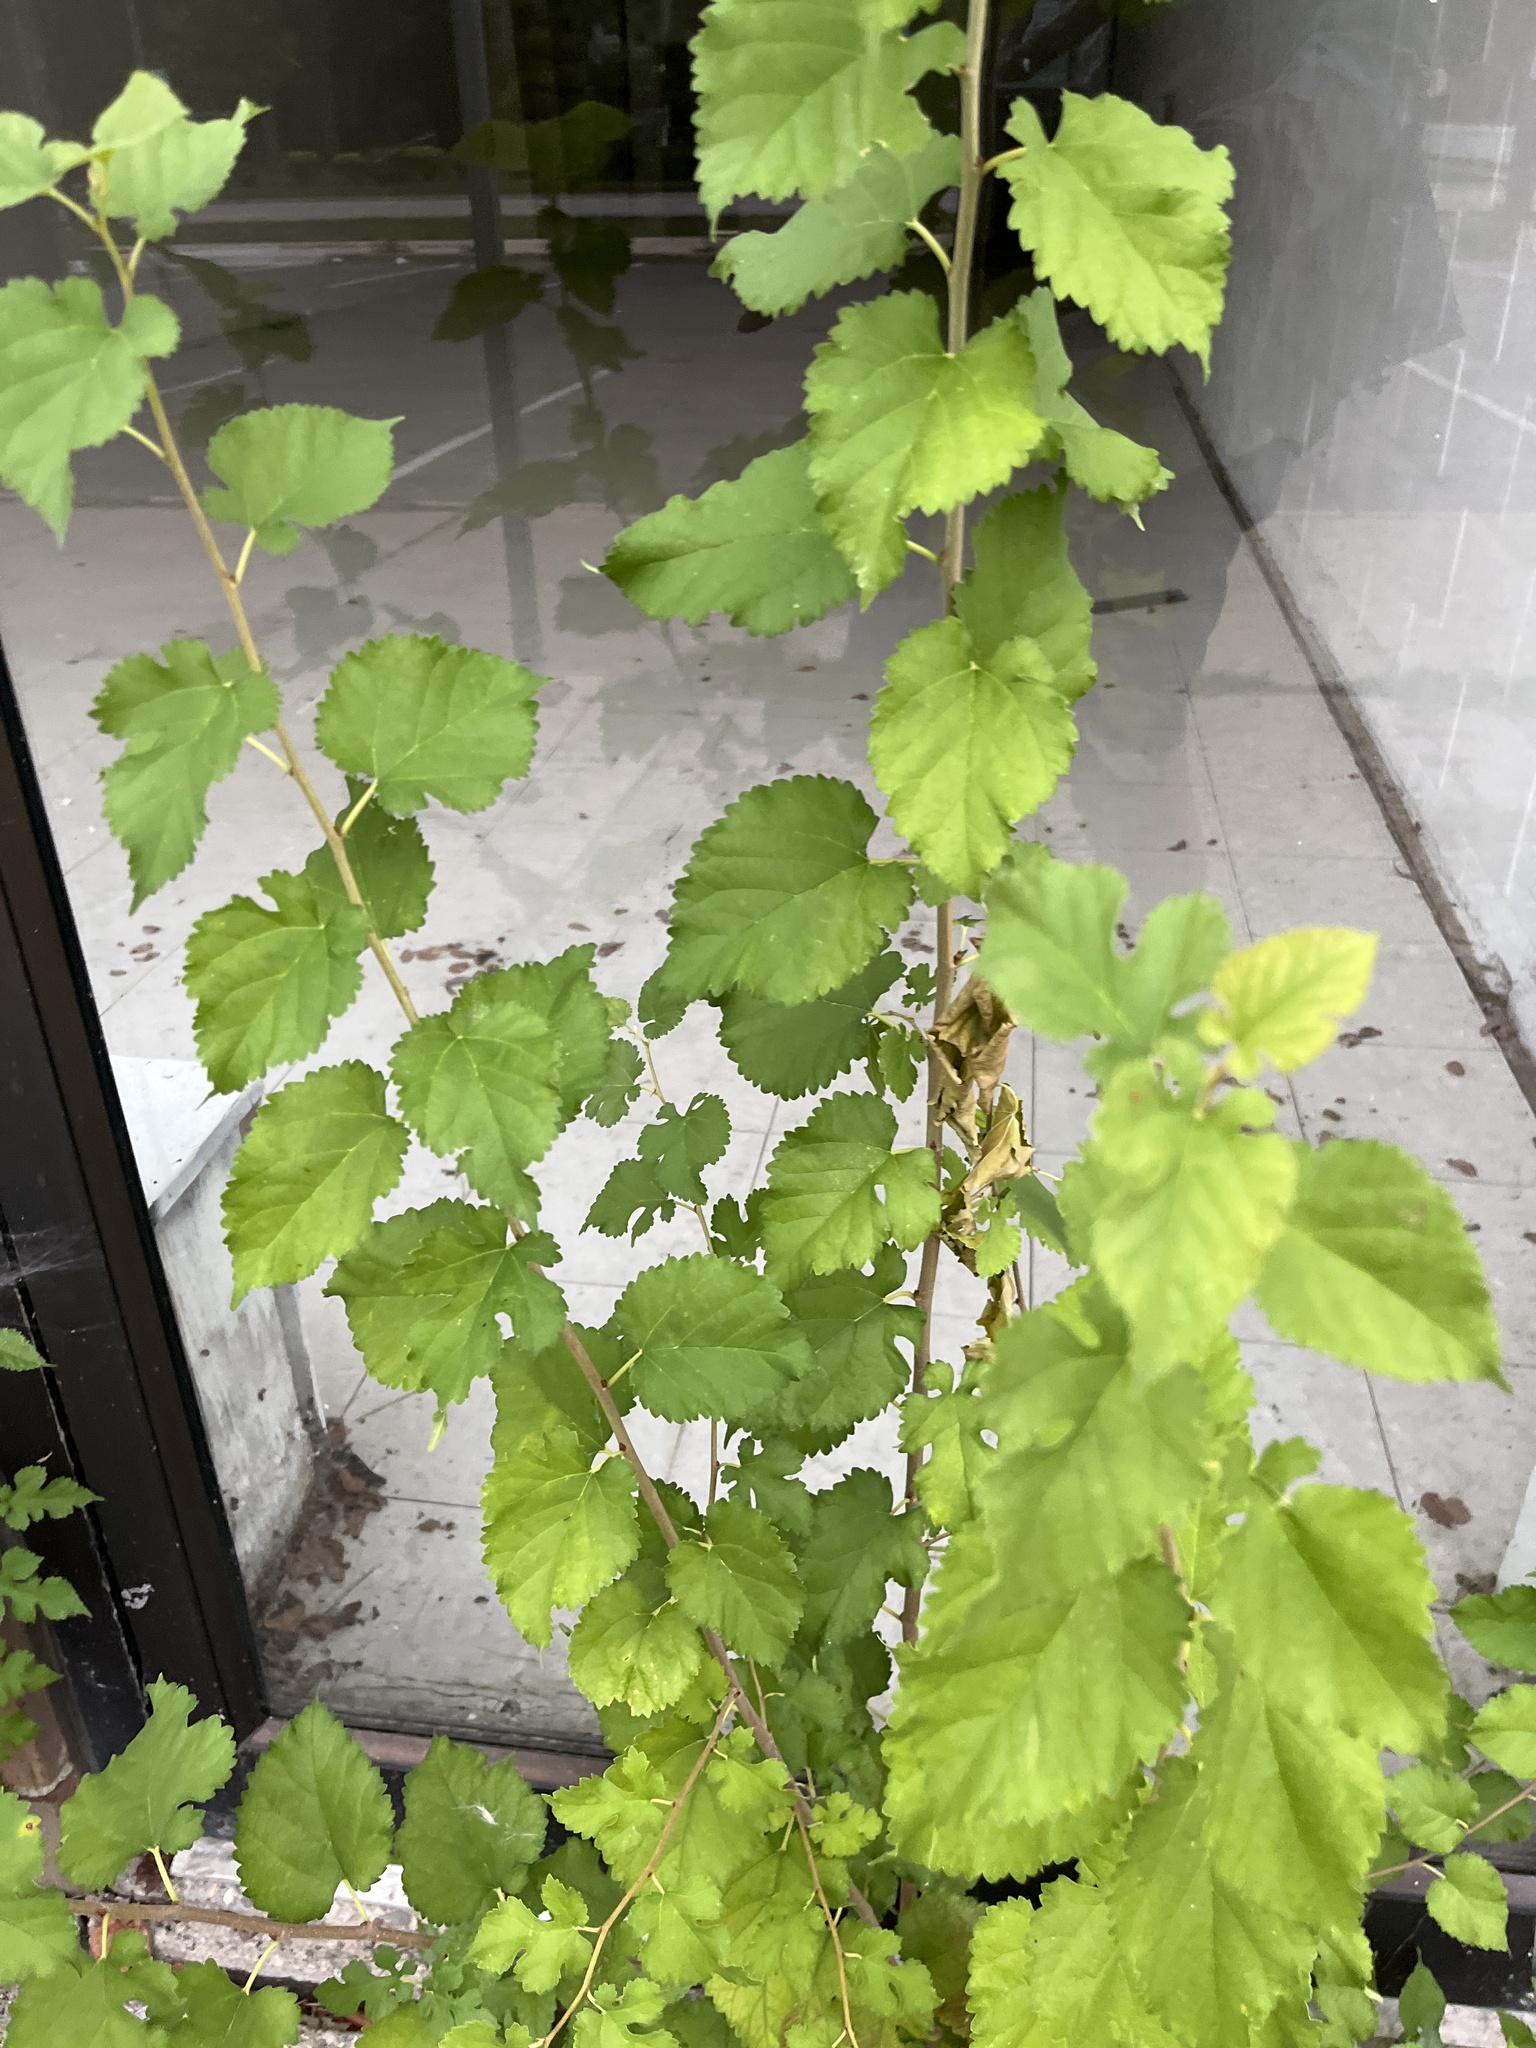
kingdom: Plantae
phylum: Tracheophyta
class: Magnoliopsida
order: Rosales
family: Moraceae
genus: Morus
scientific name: Morus alba
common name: White mulberry
